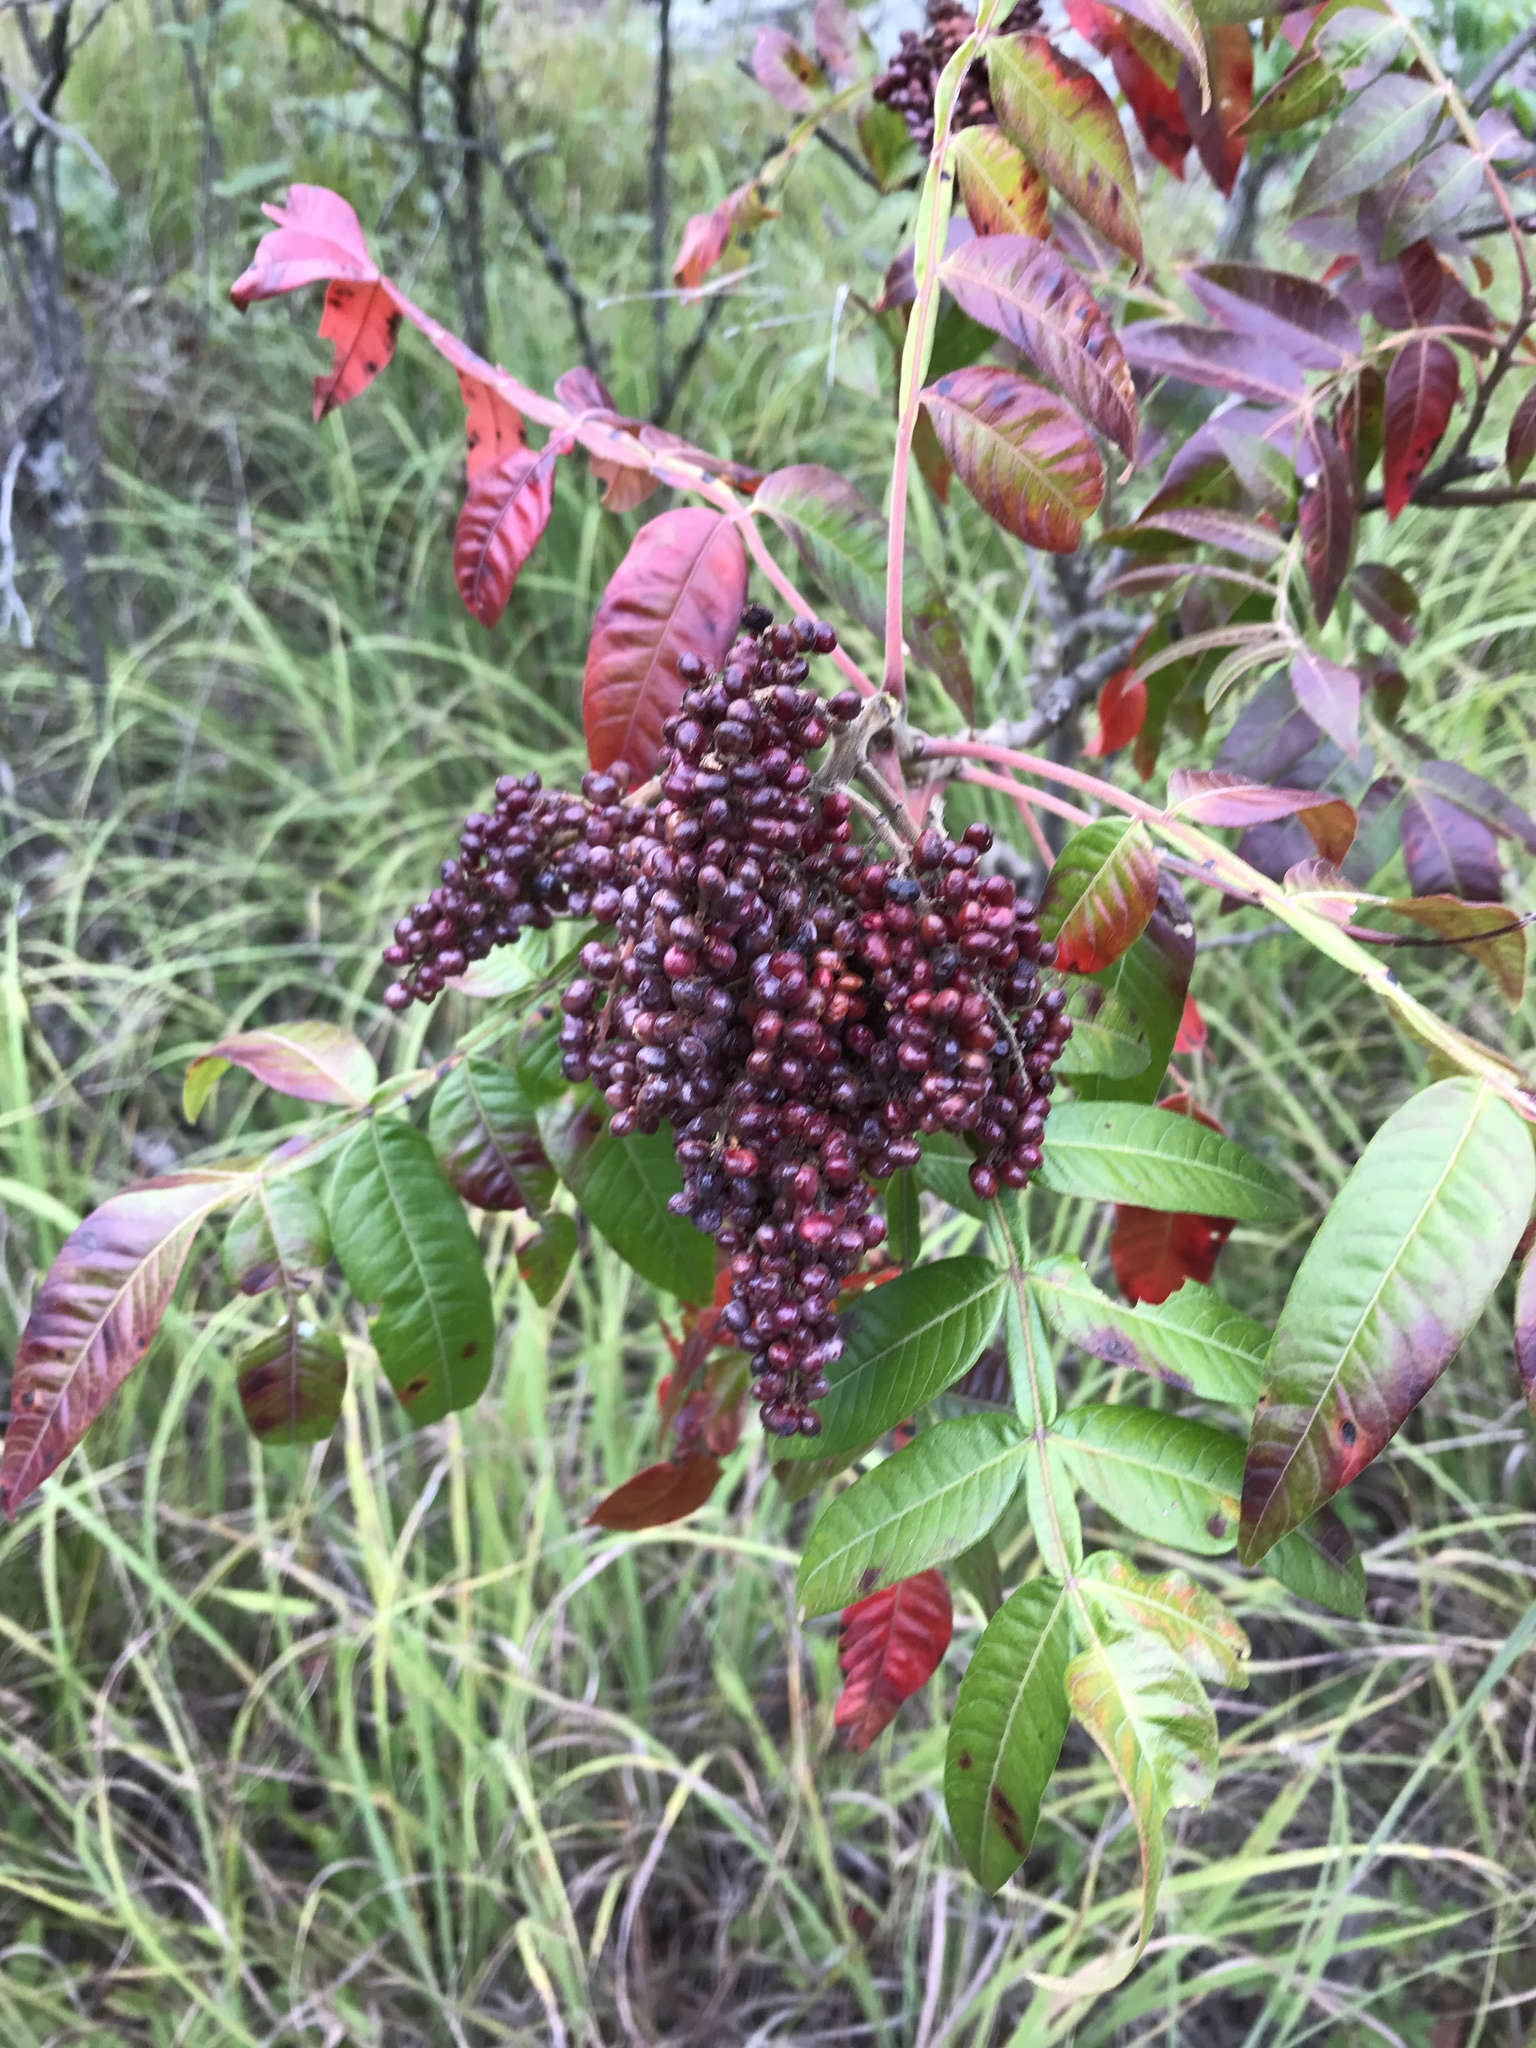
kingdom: Plantae
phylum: Tracheophyta
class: Magnoliopsida
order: Sapindales
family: Anacardiaceae
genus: Rhus
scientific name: Rhus copallina
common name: Shining sumac
